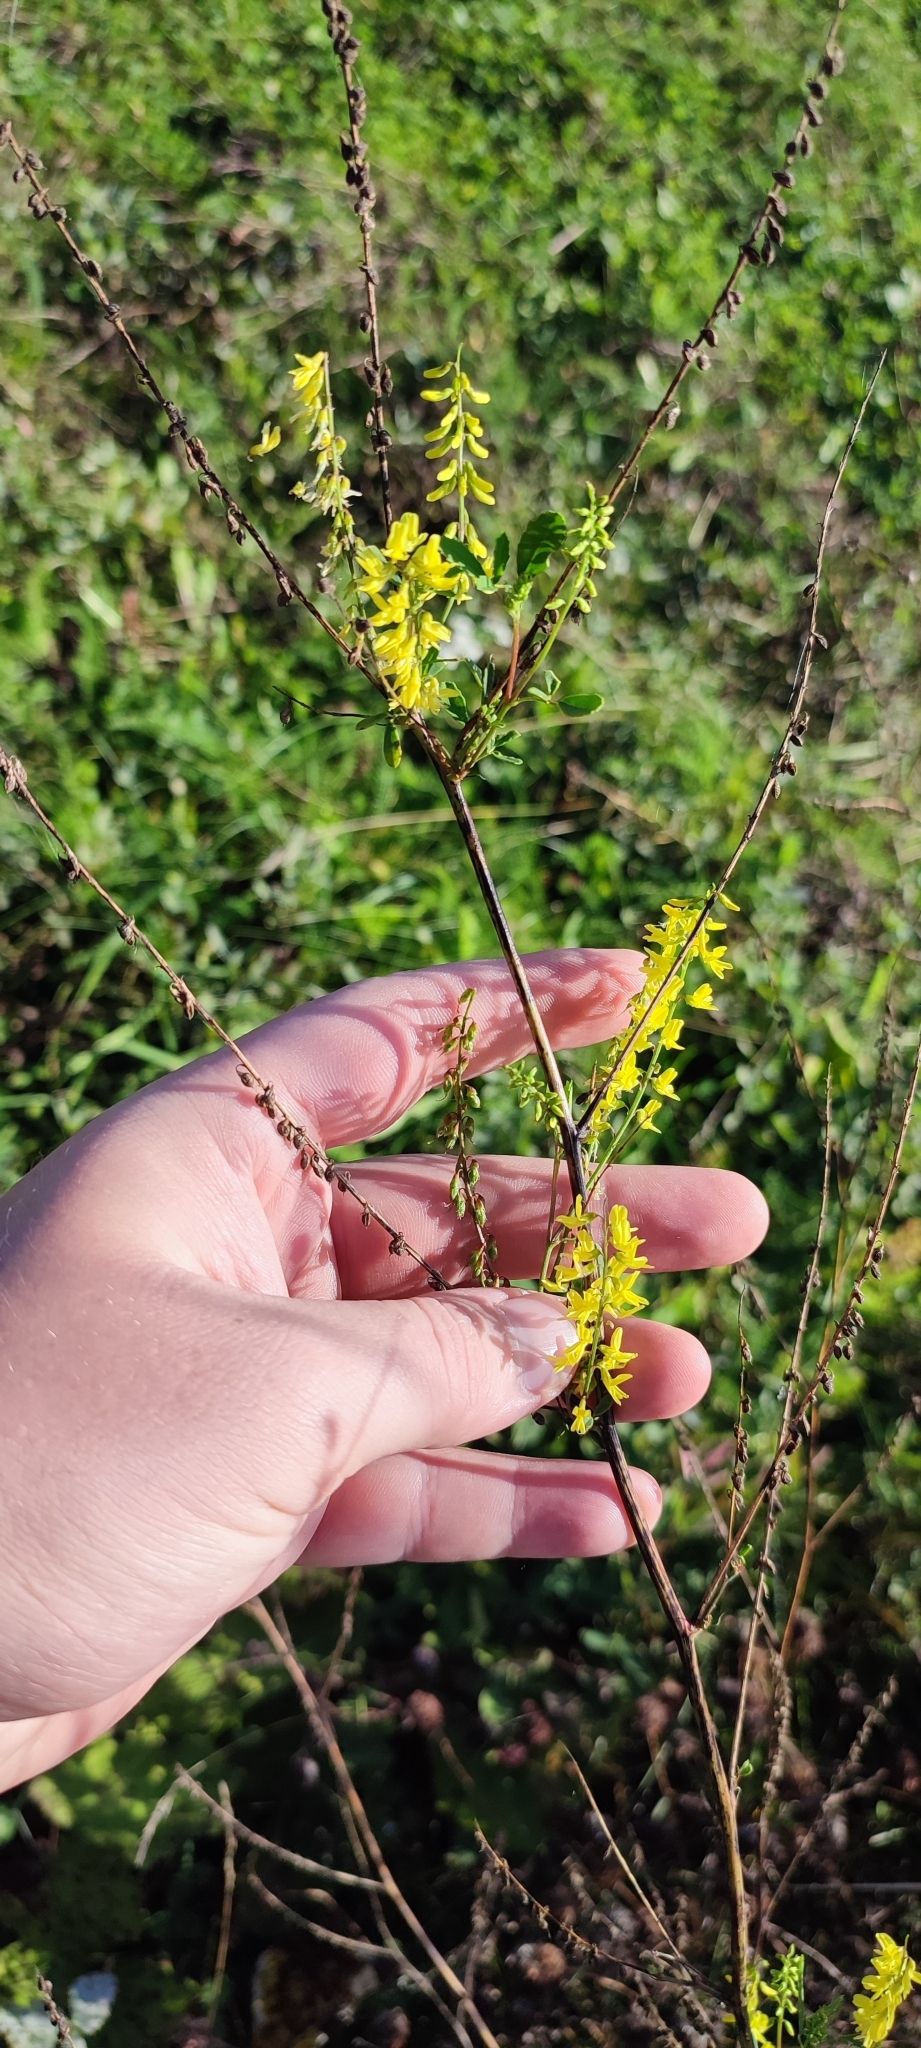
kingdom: Plantae
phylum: Tracheophyta
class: Magnoliopsida
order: Fabales
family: Fabaceae
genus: Melilotus
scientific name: Melilotus officinalis
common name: Sweetclover
